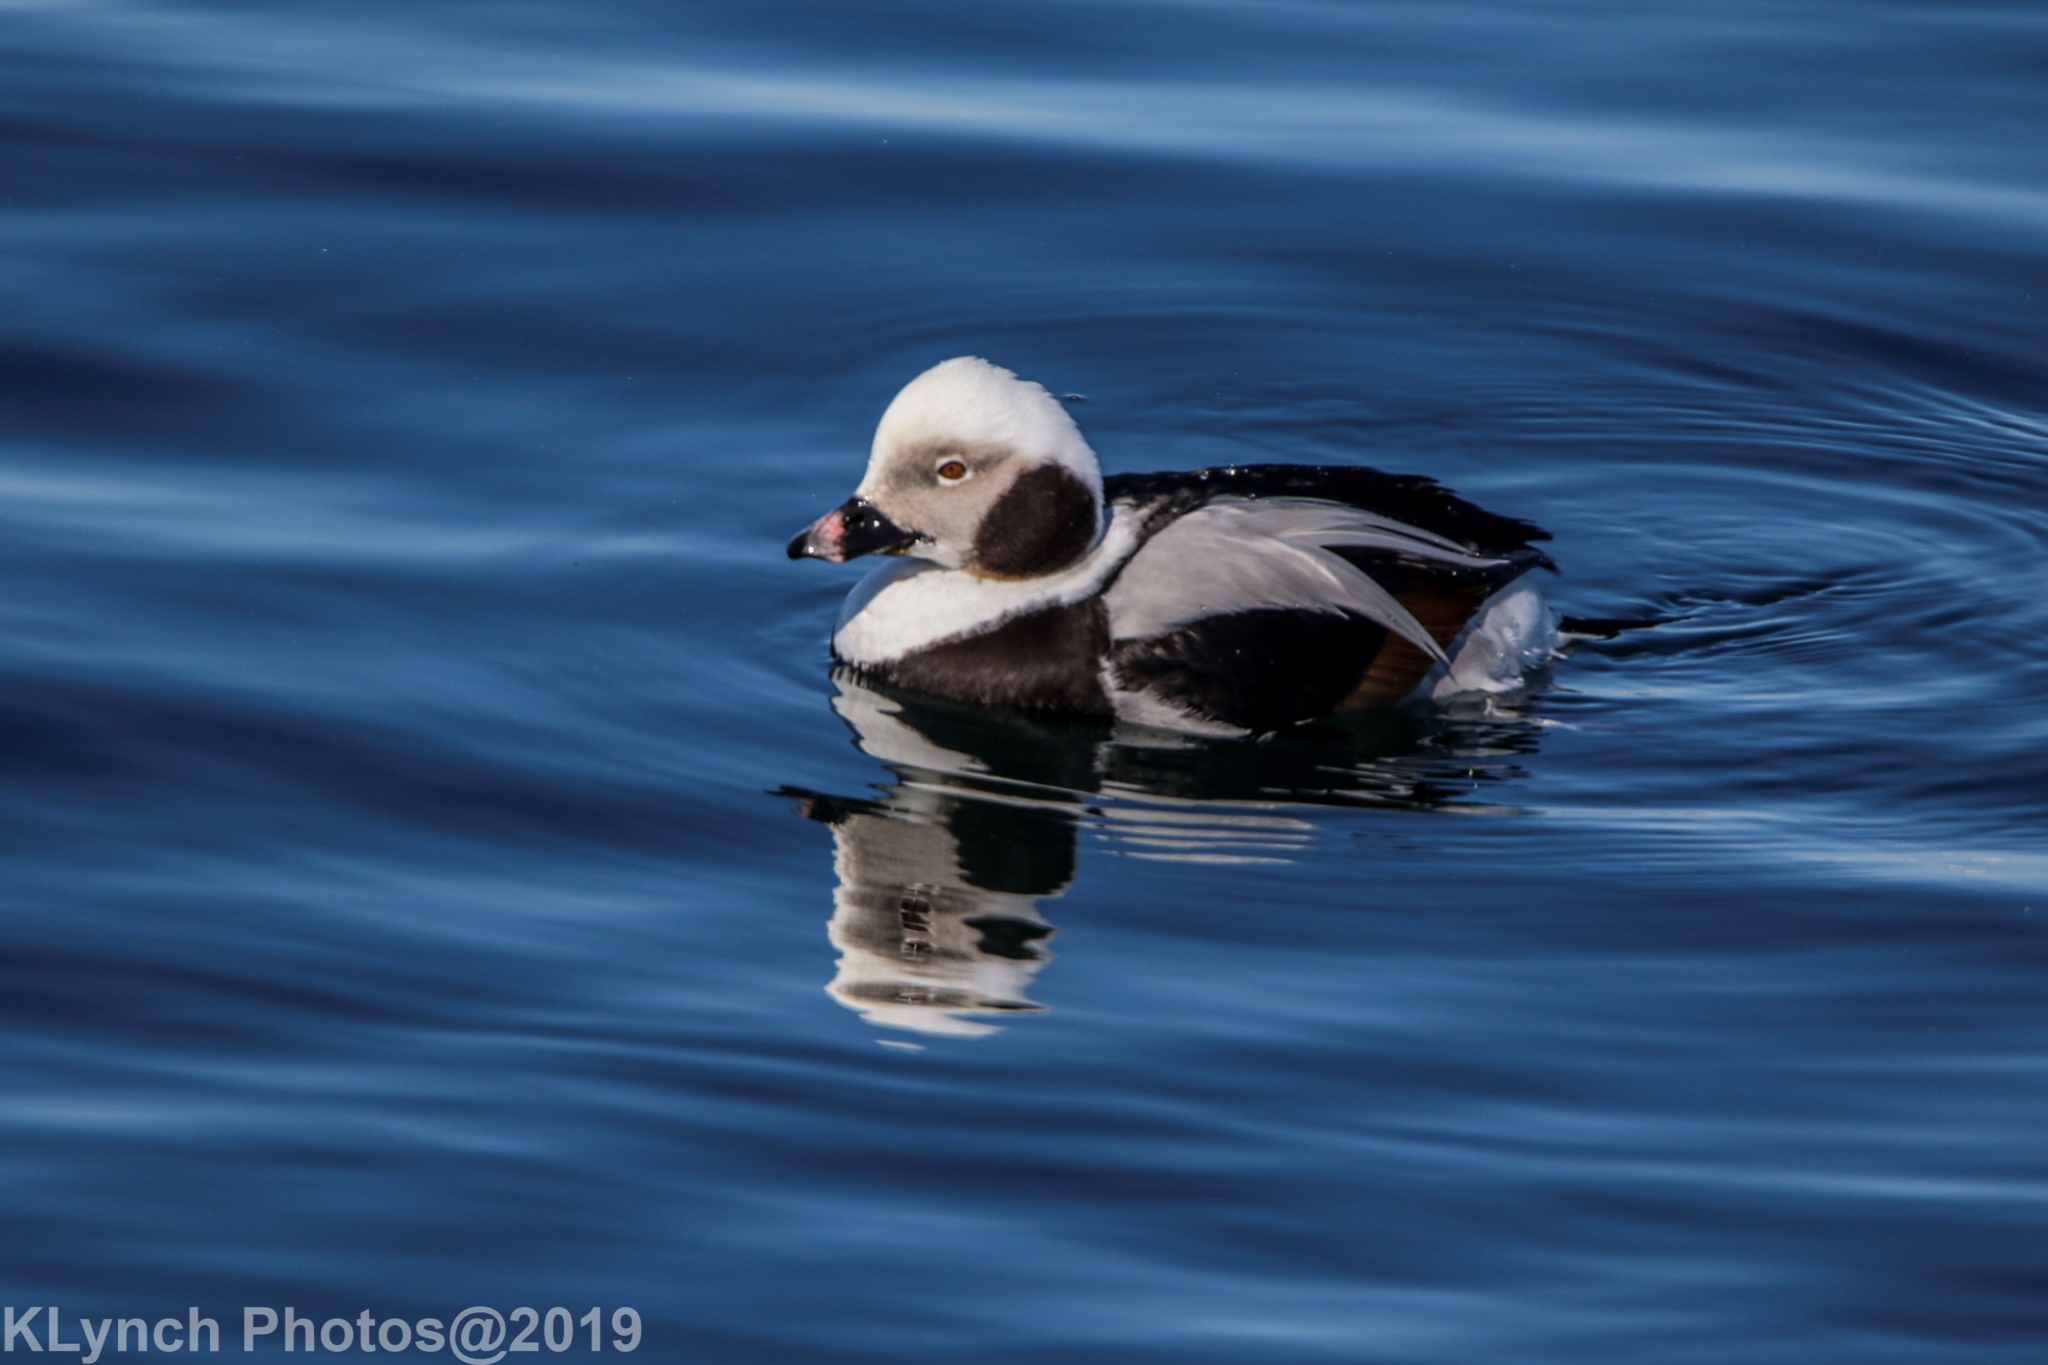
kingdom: Animalia
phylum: Chordata
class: Aves
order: Anseriformes
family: Anatidae
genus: Clangula
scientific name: Clangula hyemalis
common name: Long-tailed duck
